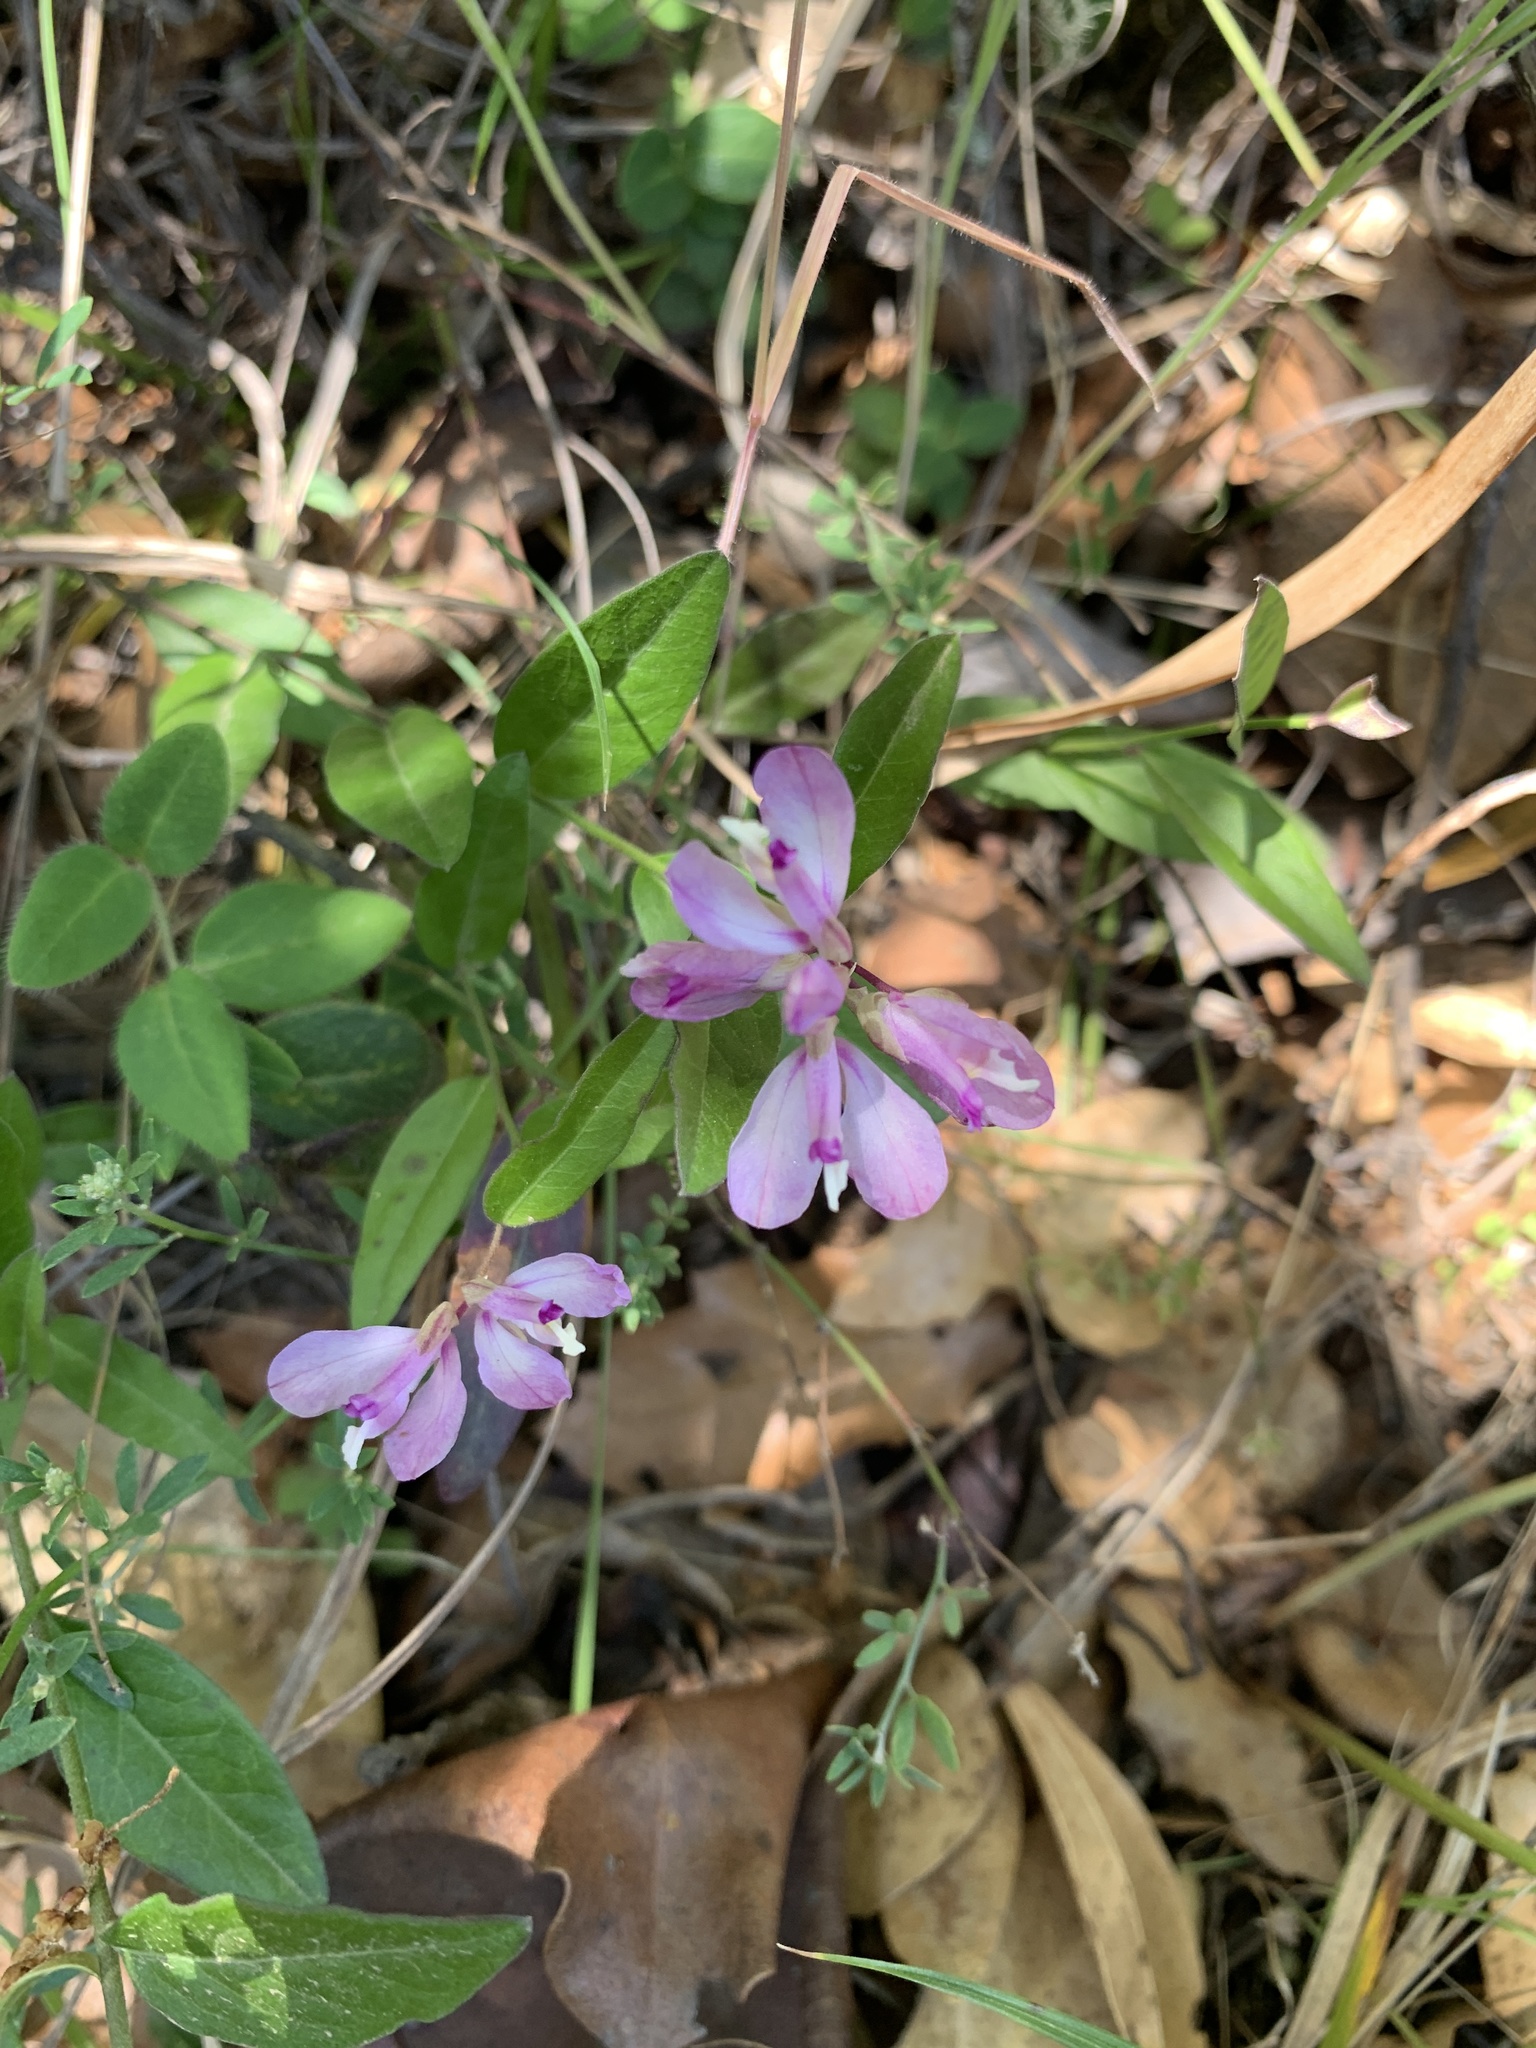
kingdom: Plantae
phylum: Tracheophyta
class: Magnoliopsida
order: Fabales
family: Polygalaceae
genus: Rhinotropis
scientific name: Rhinotropis californica
